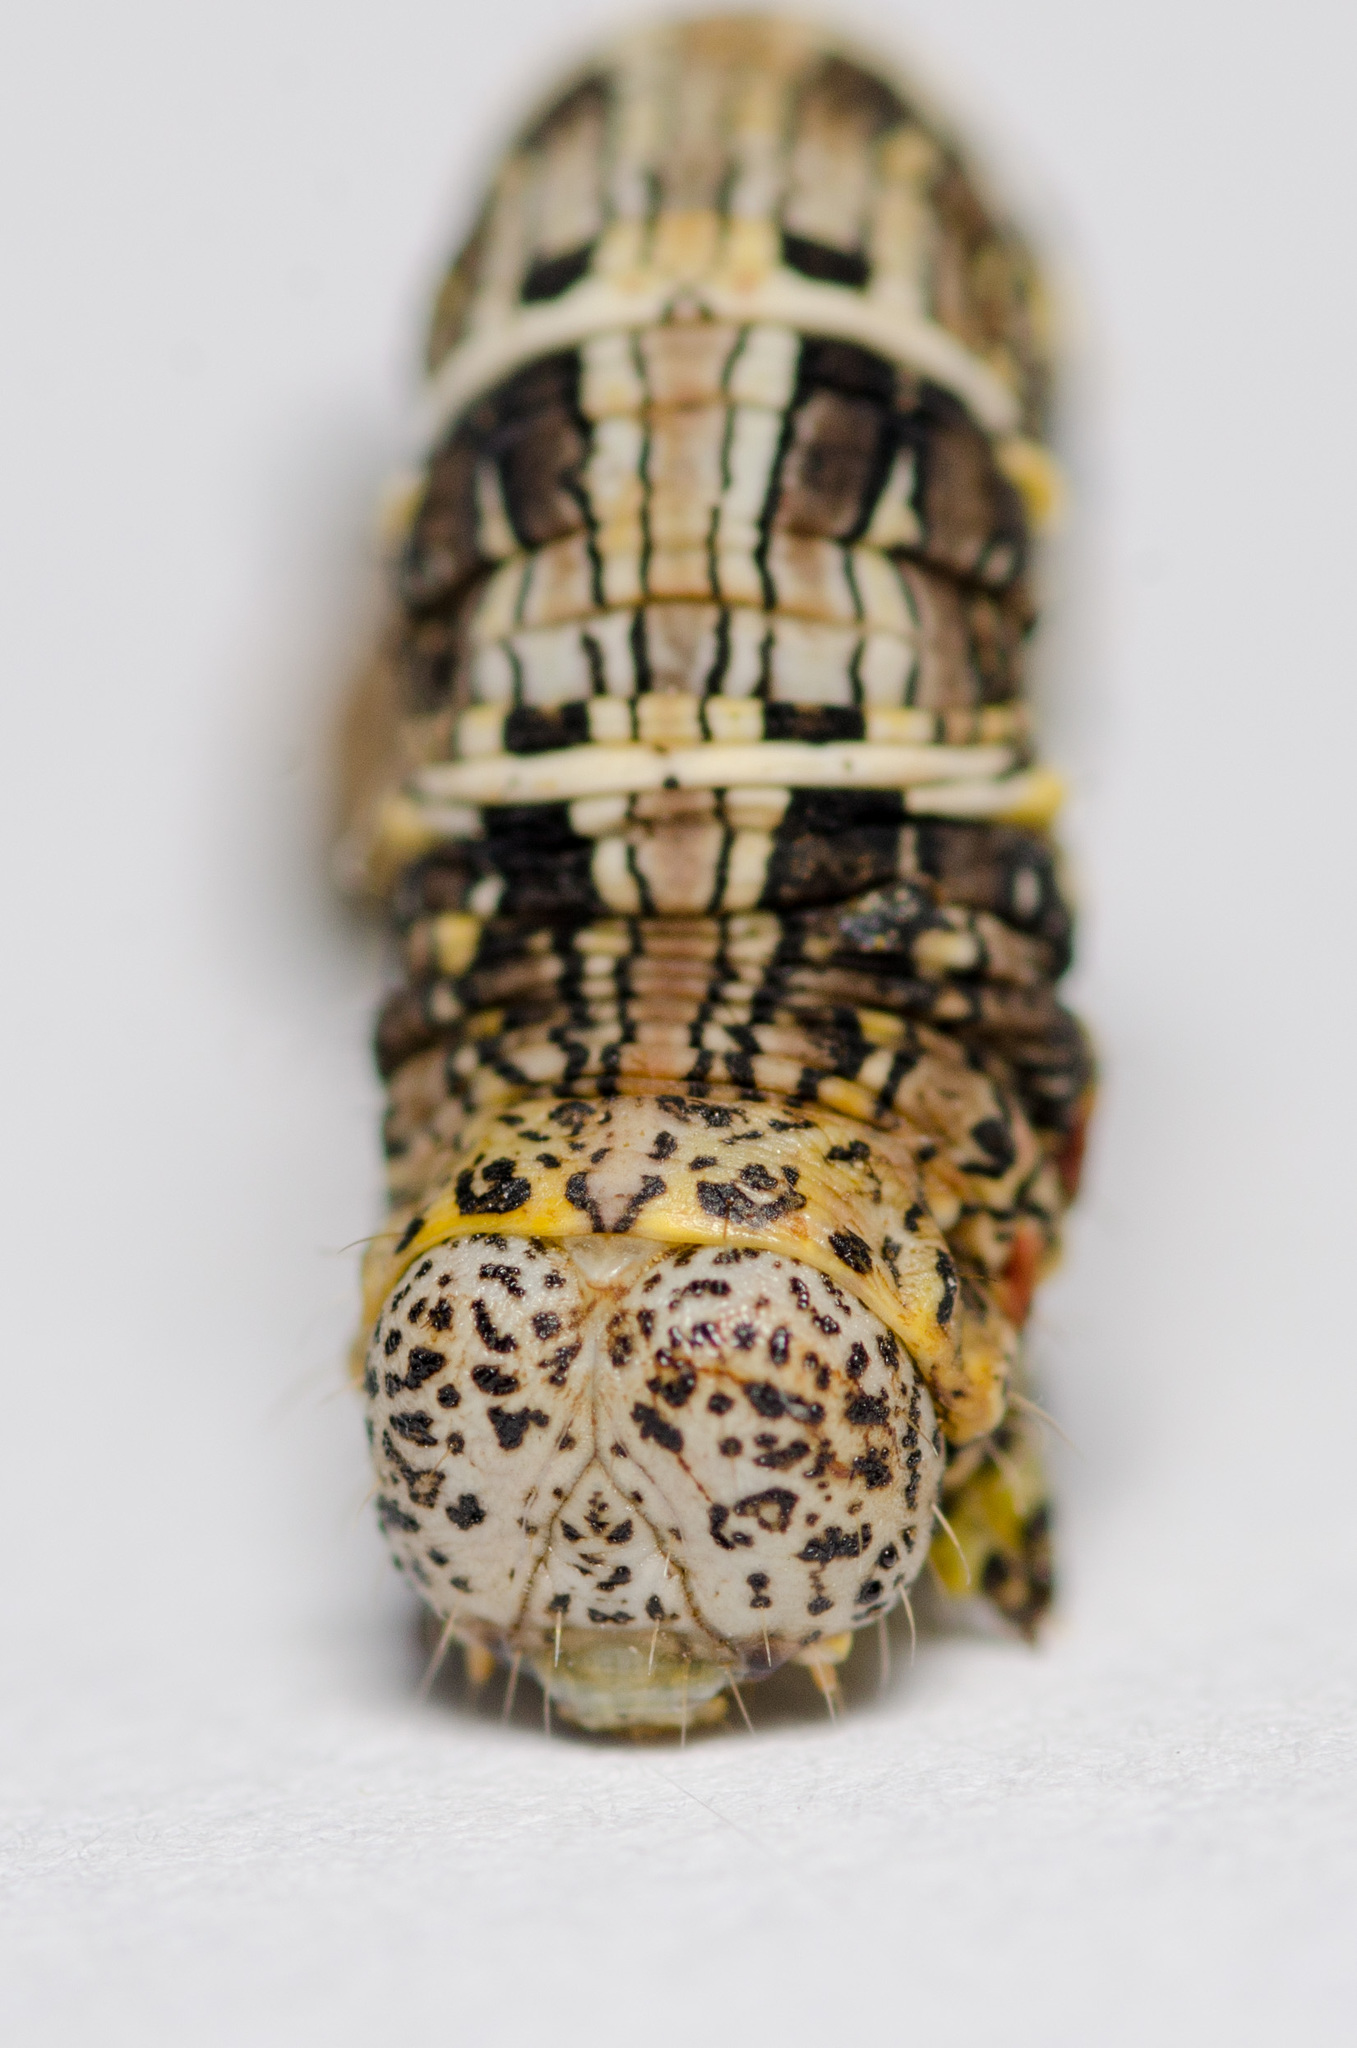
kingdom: Animalia
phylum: Arthropoda
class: Insecta
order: Lepidoptera
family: Geometridae
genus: Lycia
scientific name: Lycia ypsilon
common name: Wooly gray
